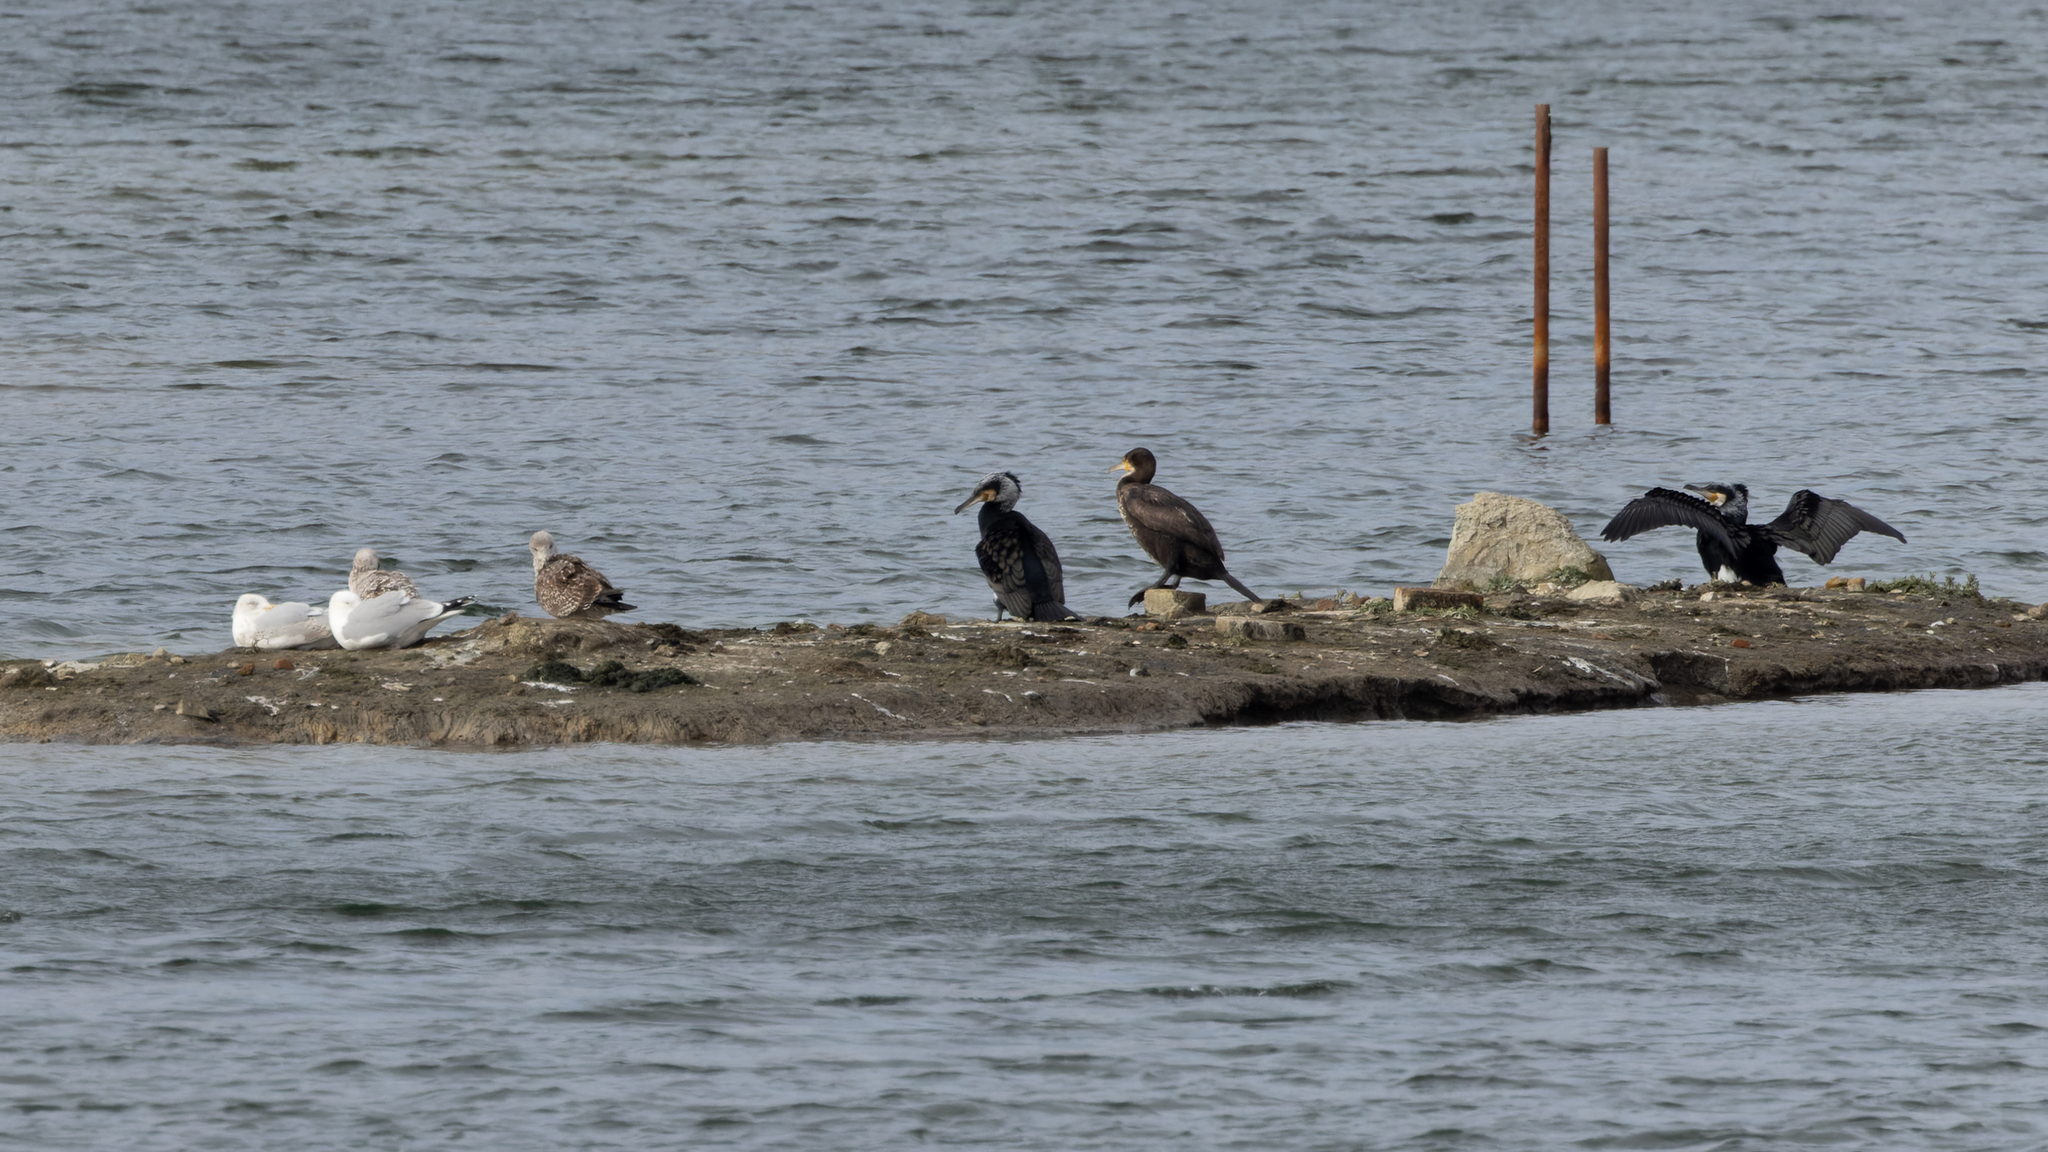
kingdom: Animalia
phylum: Chordata
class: Aves
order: Suliformes
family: Phalacrocoracidae
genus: Phalacrocorax
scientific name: Phalacrocorax carbo
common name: Great cormorant
